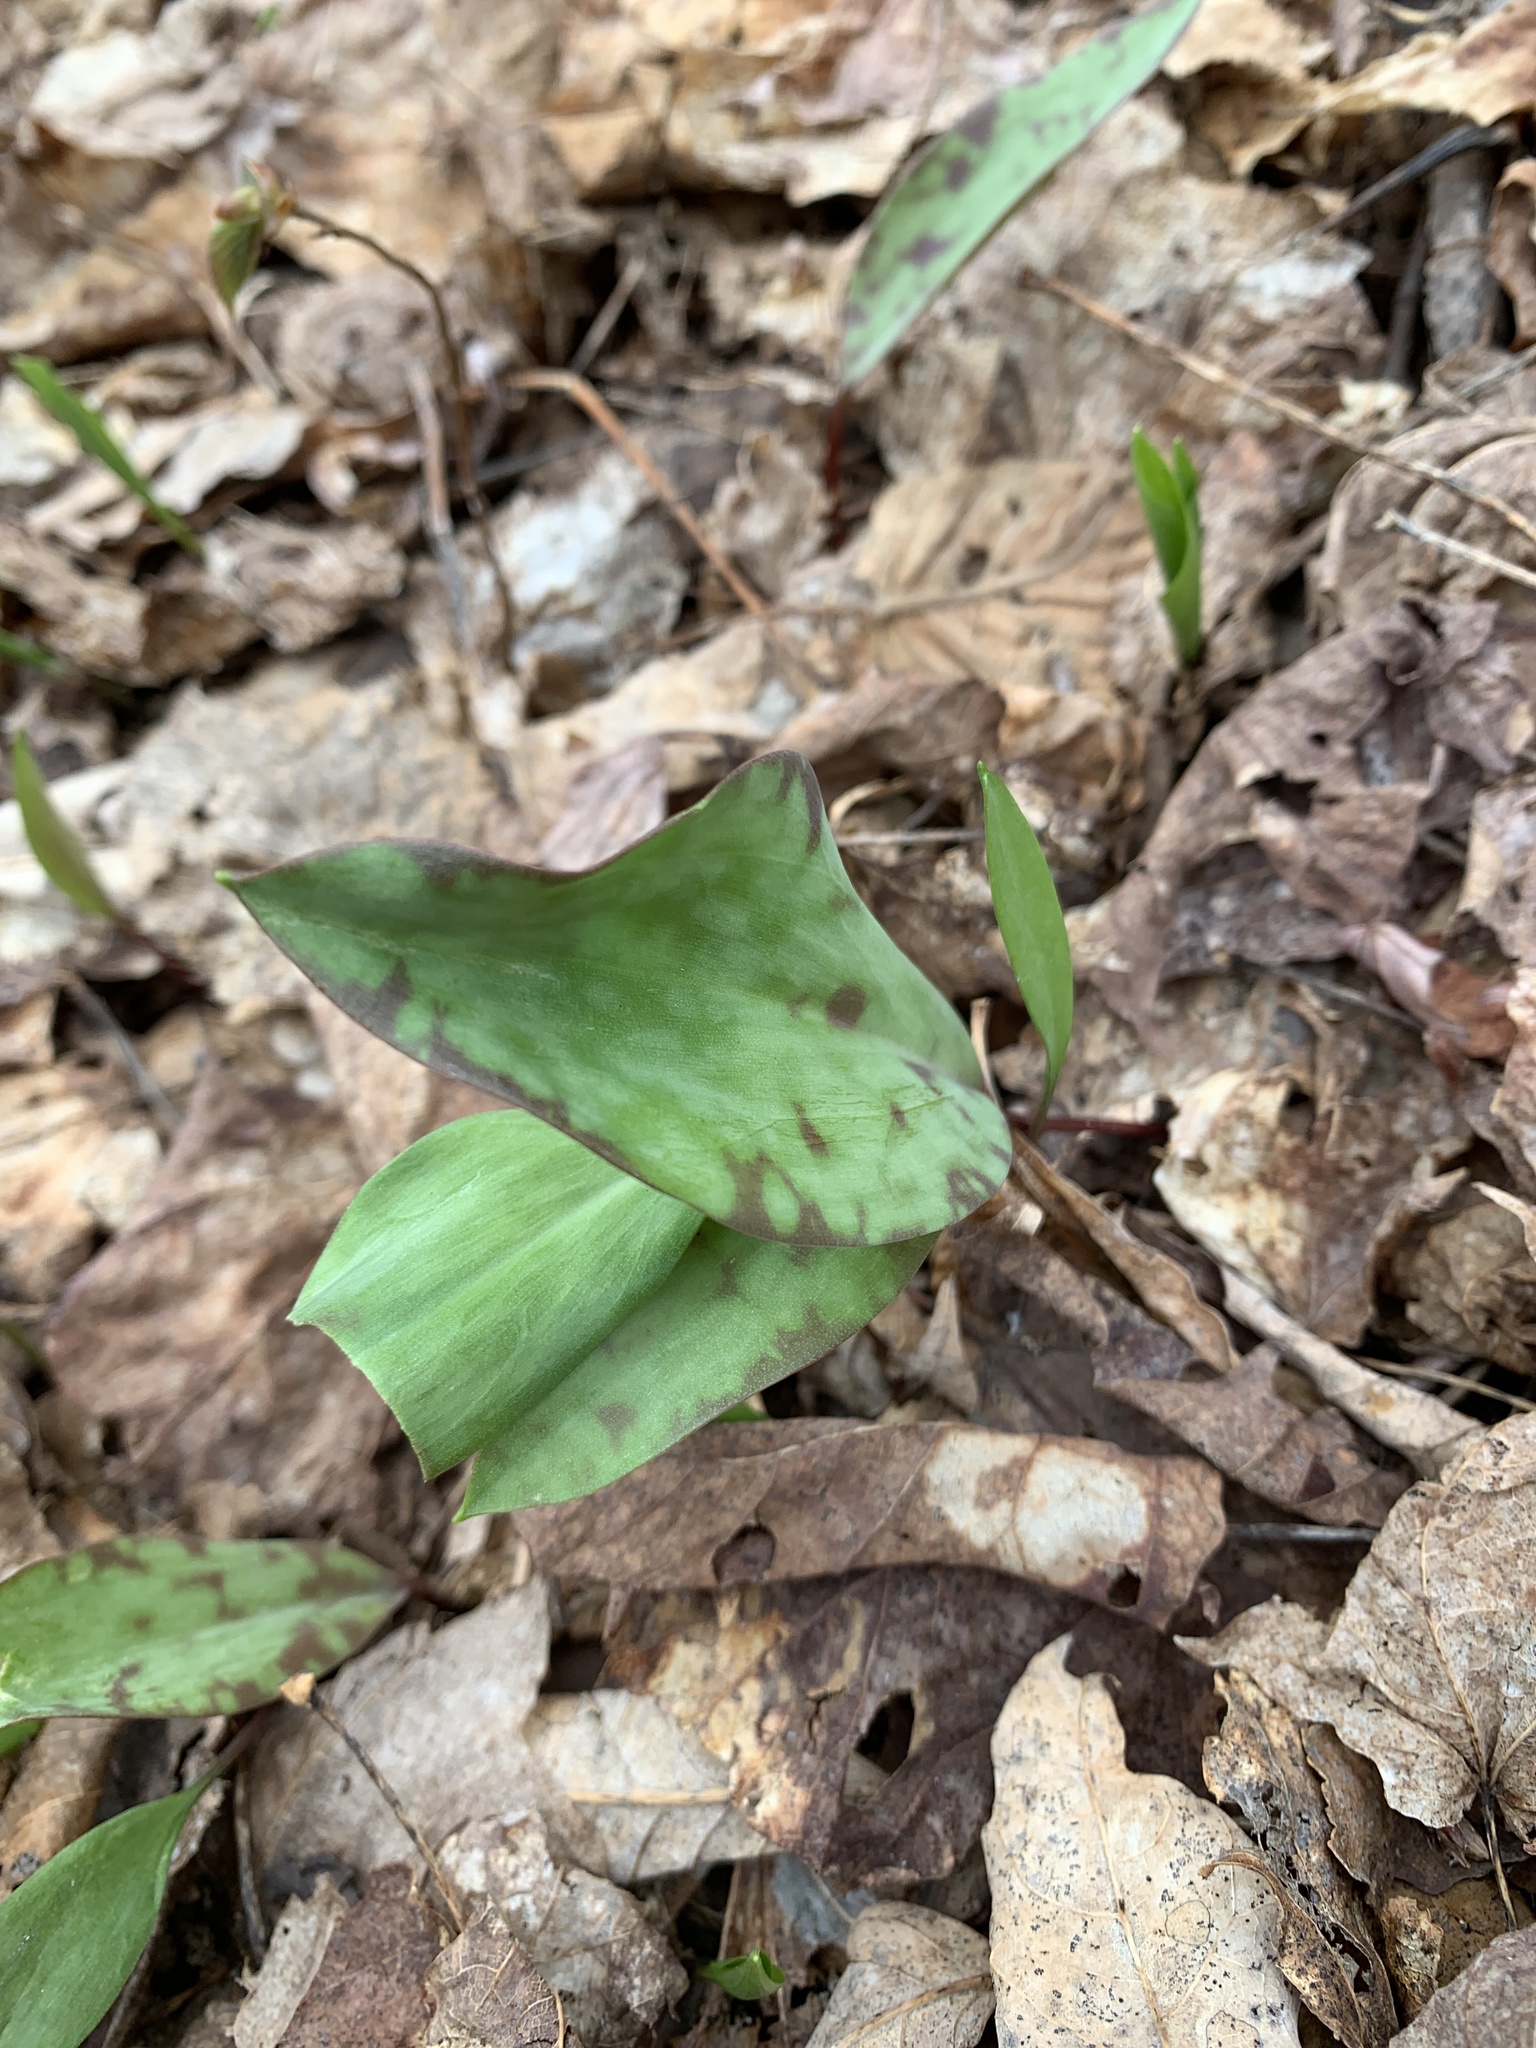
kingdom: Plantae
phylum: Tracheophyta
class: Liliopsida
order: Liliales
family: Liliaceae
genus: Erythronium
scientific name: Erythronium americanum
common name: Yellow adder's-tongue
